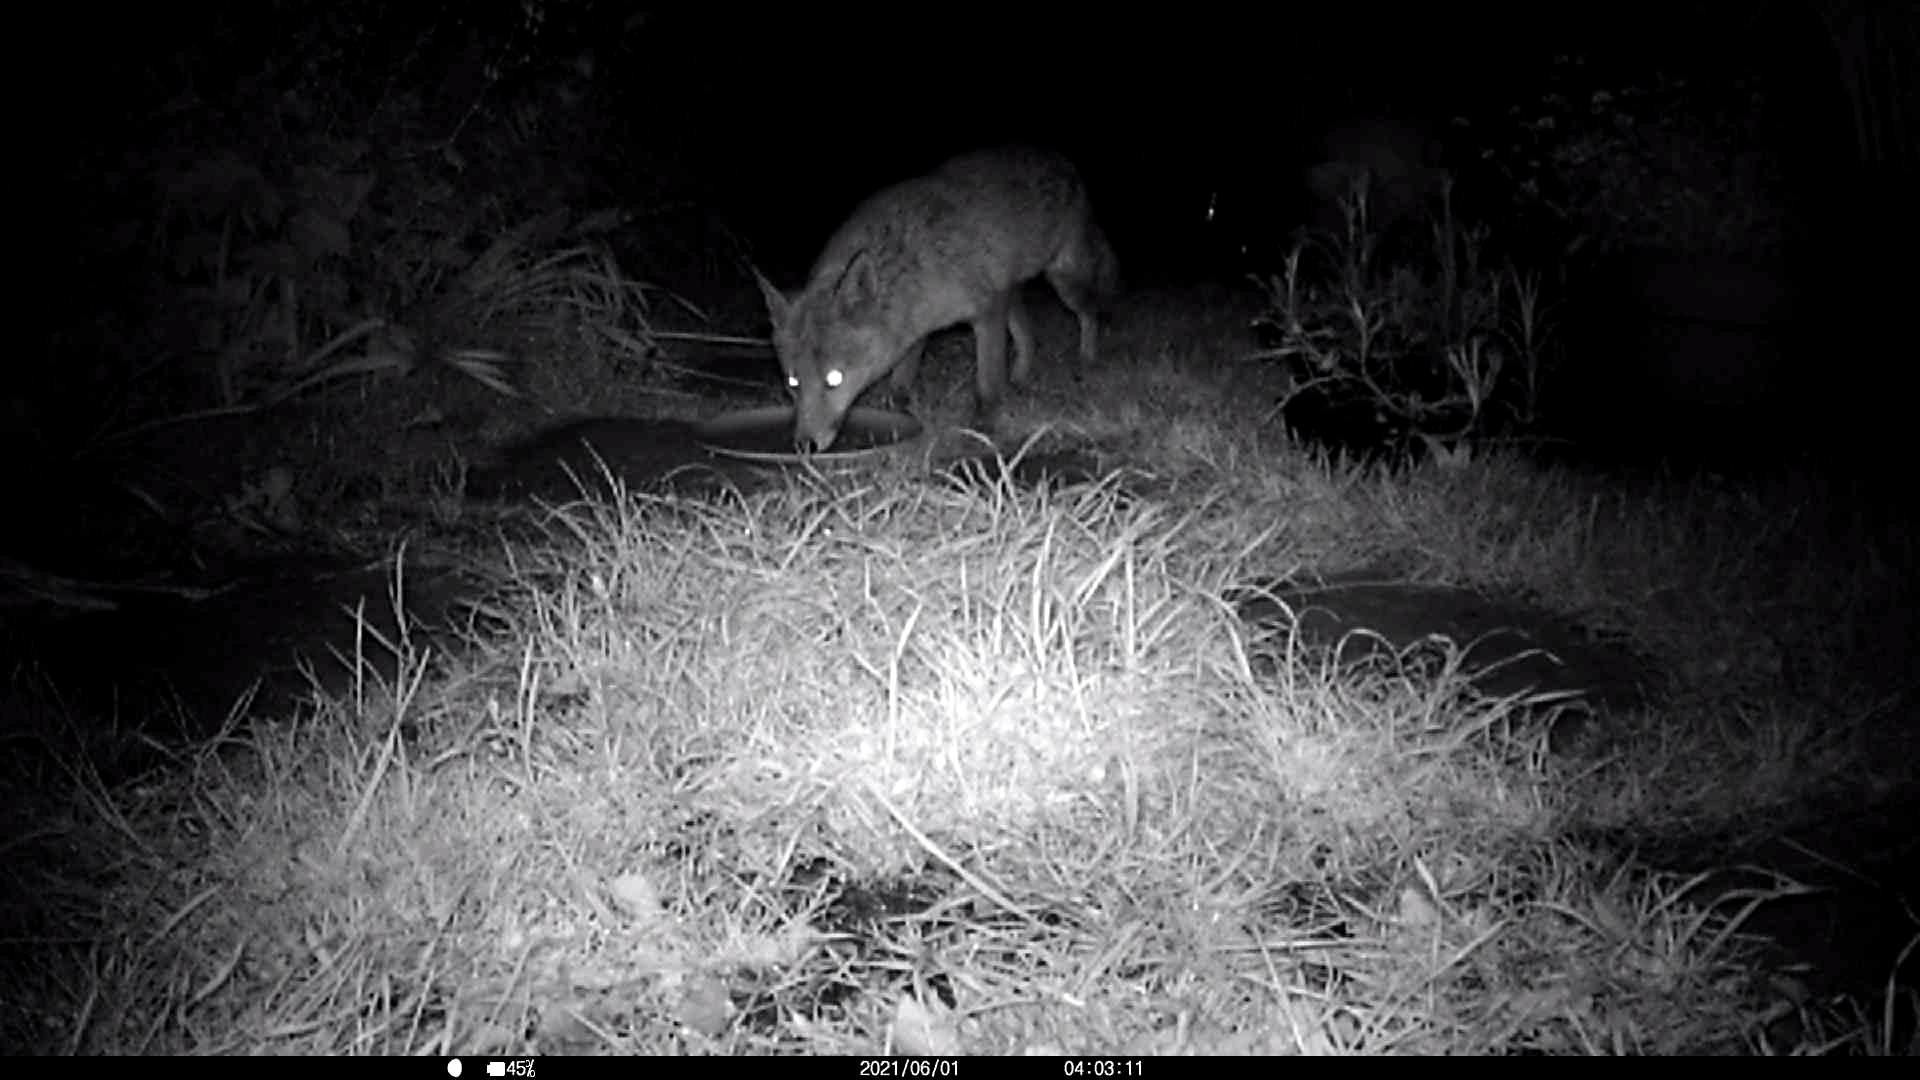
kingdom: Animalia
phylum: Chordata
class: Mammalia
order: Carnivora
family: Canidae
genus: Vulpes
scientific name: Vulpes vulpes
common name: Red fox
